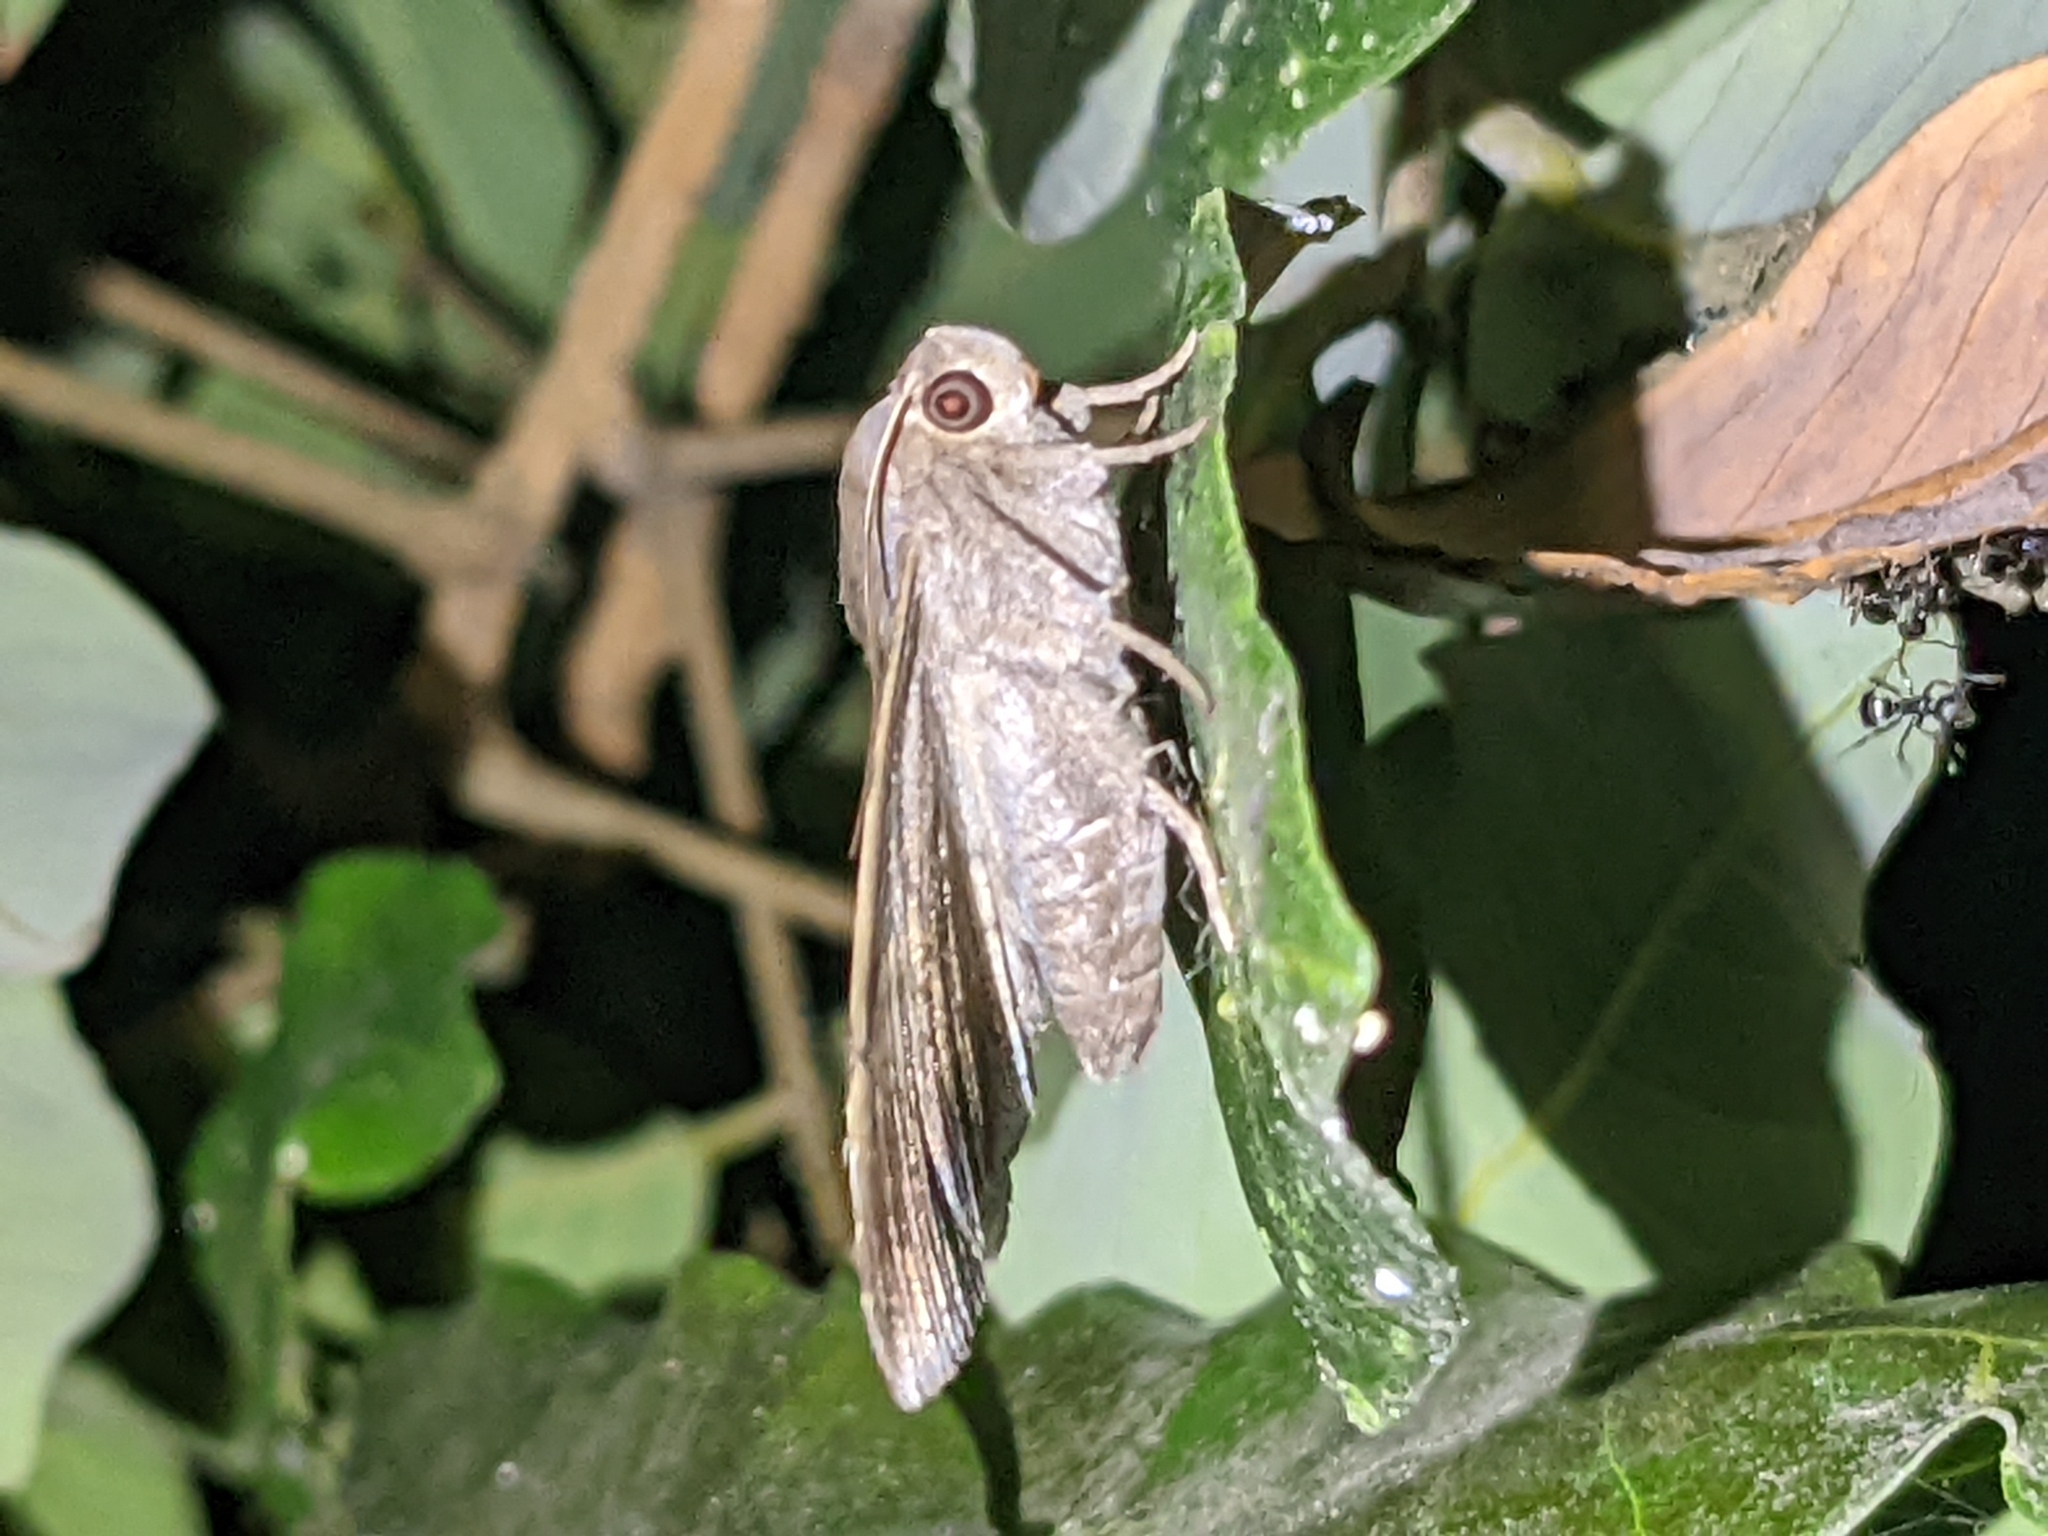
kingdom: Animalia
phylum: Arthropoda
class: Insecta
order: Lepidoptera
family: Erebidae
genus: Bastilla
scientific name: Bastilla joviana
